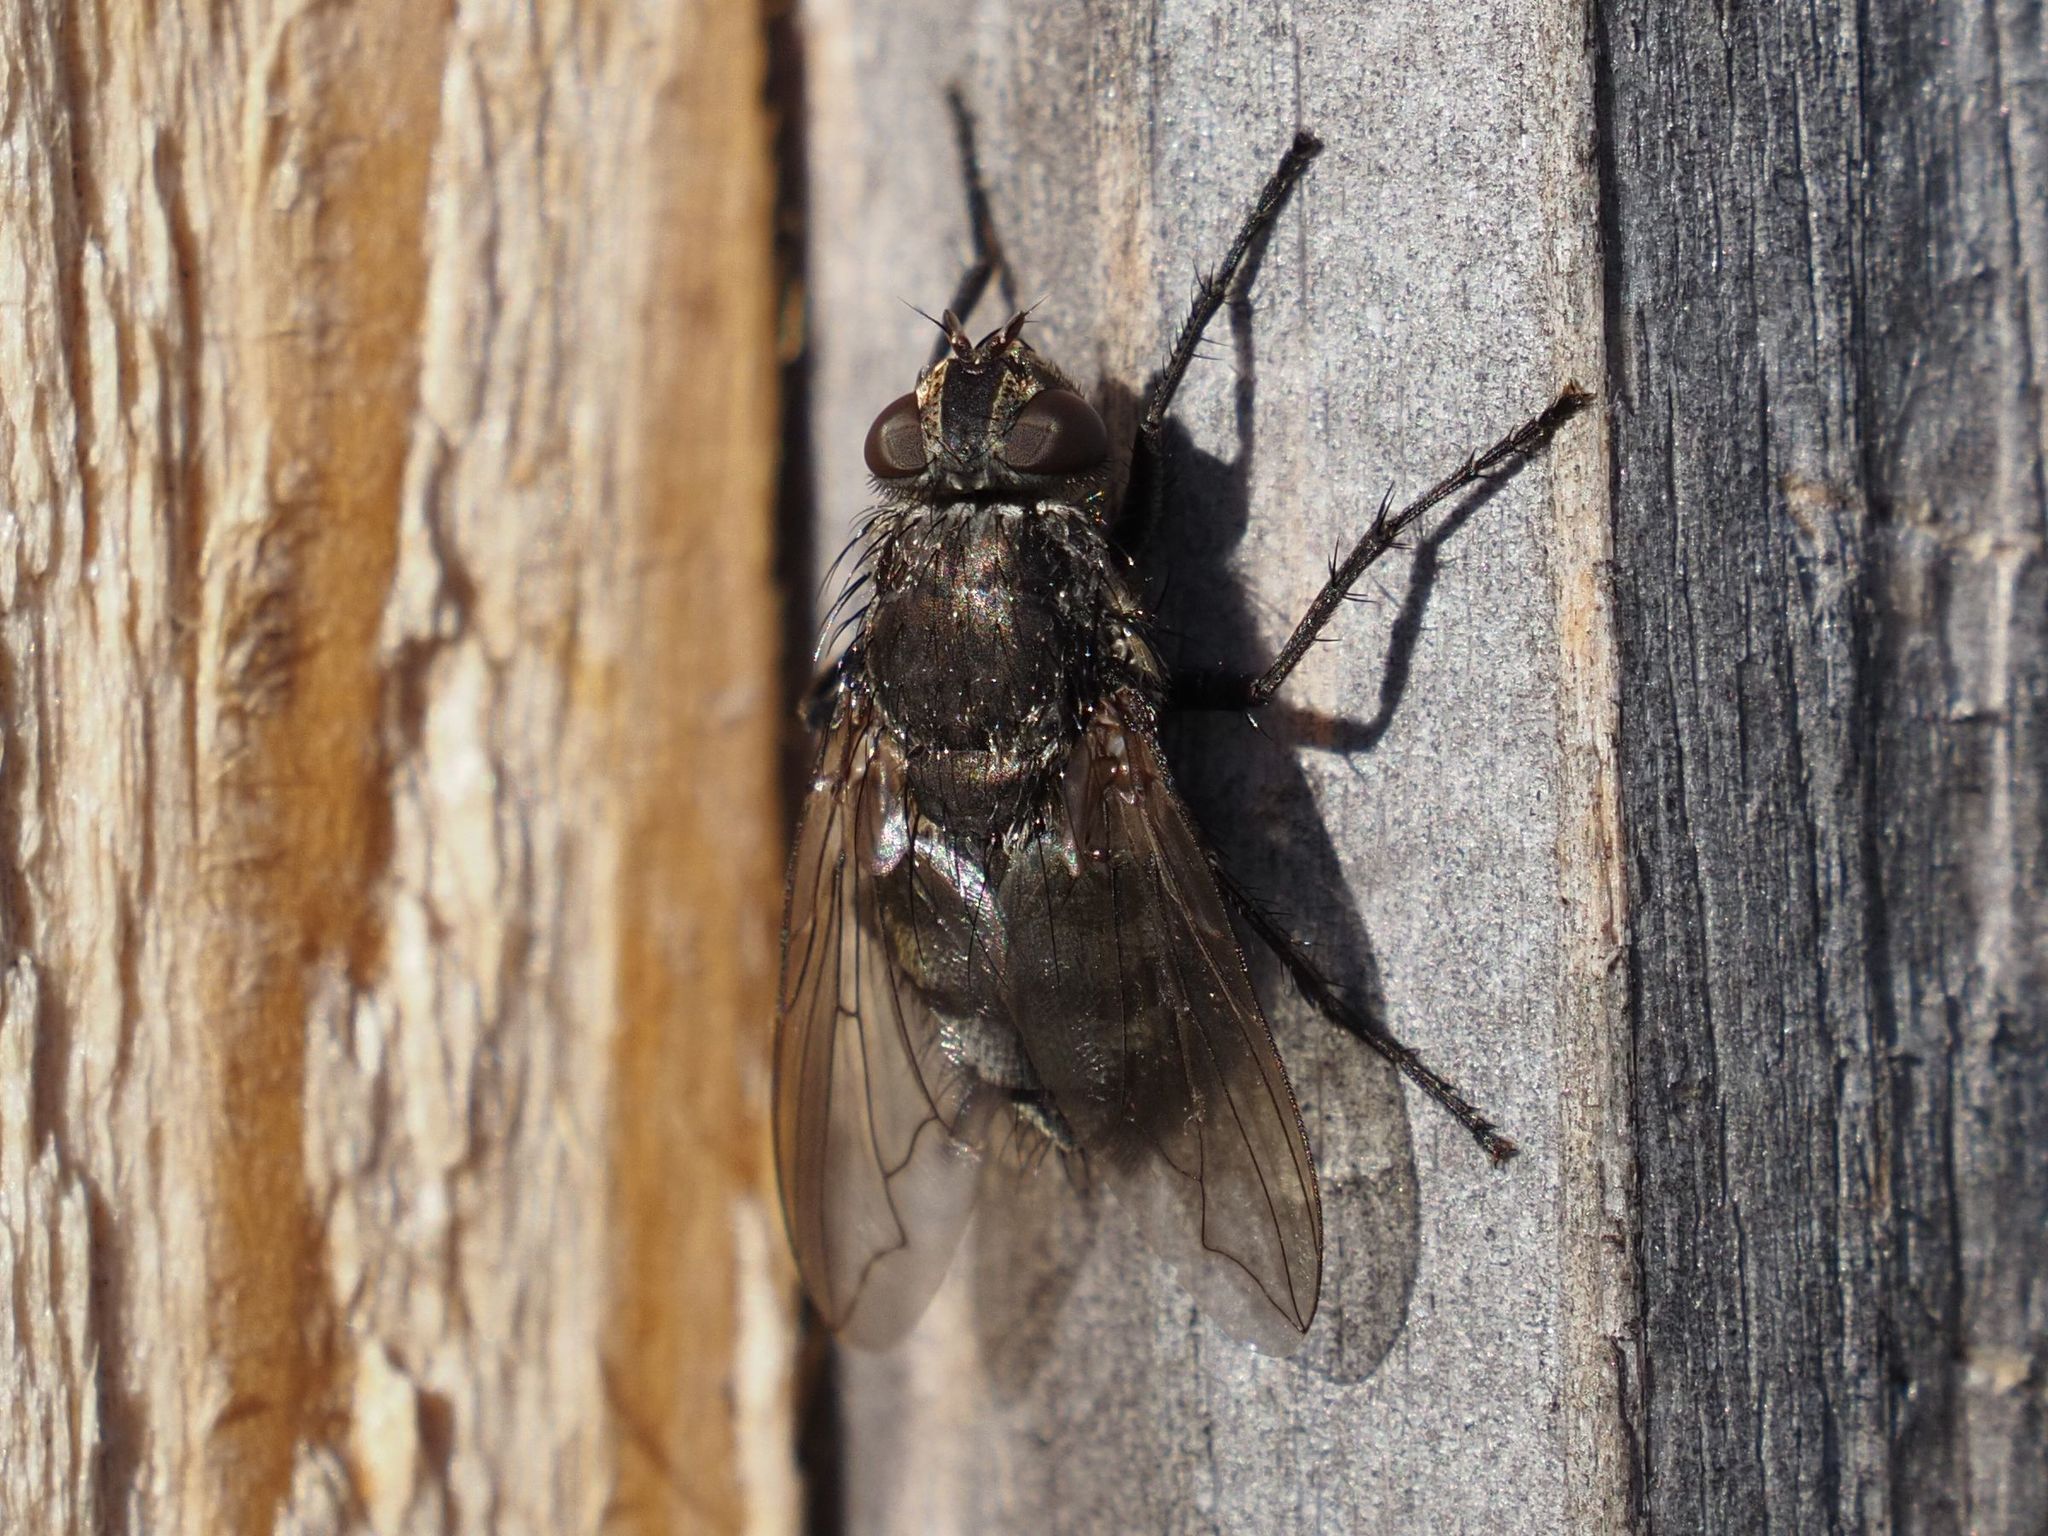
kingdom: Animalia
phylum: Arthropoda
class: Insecta
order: Diptera
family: Polleniidae
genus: Pollenia
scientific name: Pollenia vagabunda
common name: Vagabund cluster fly
